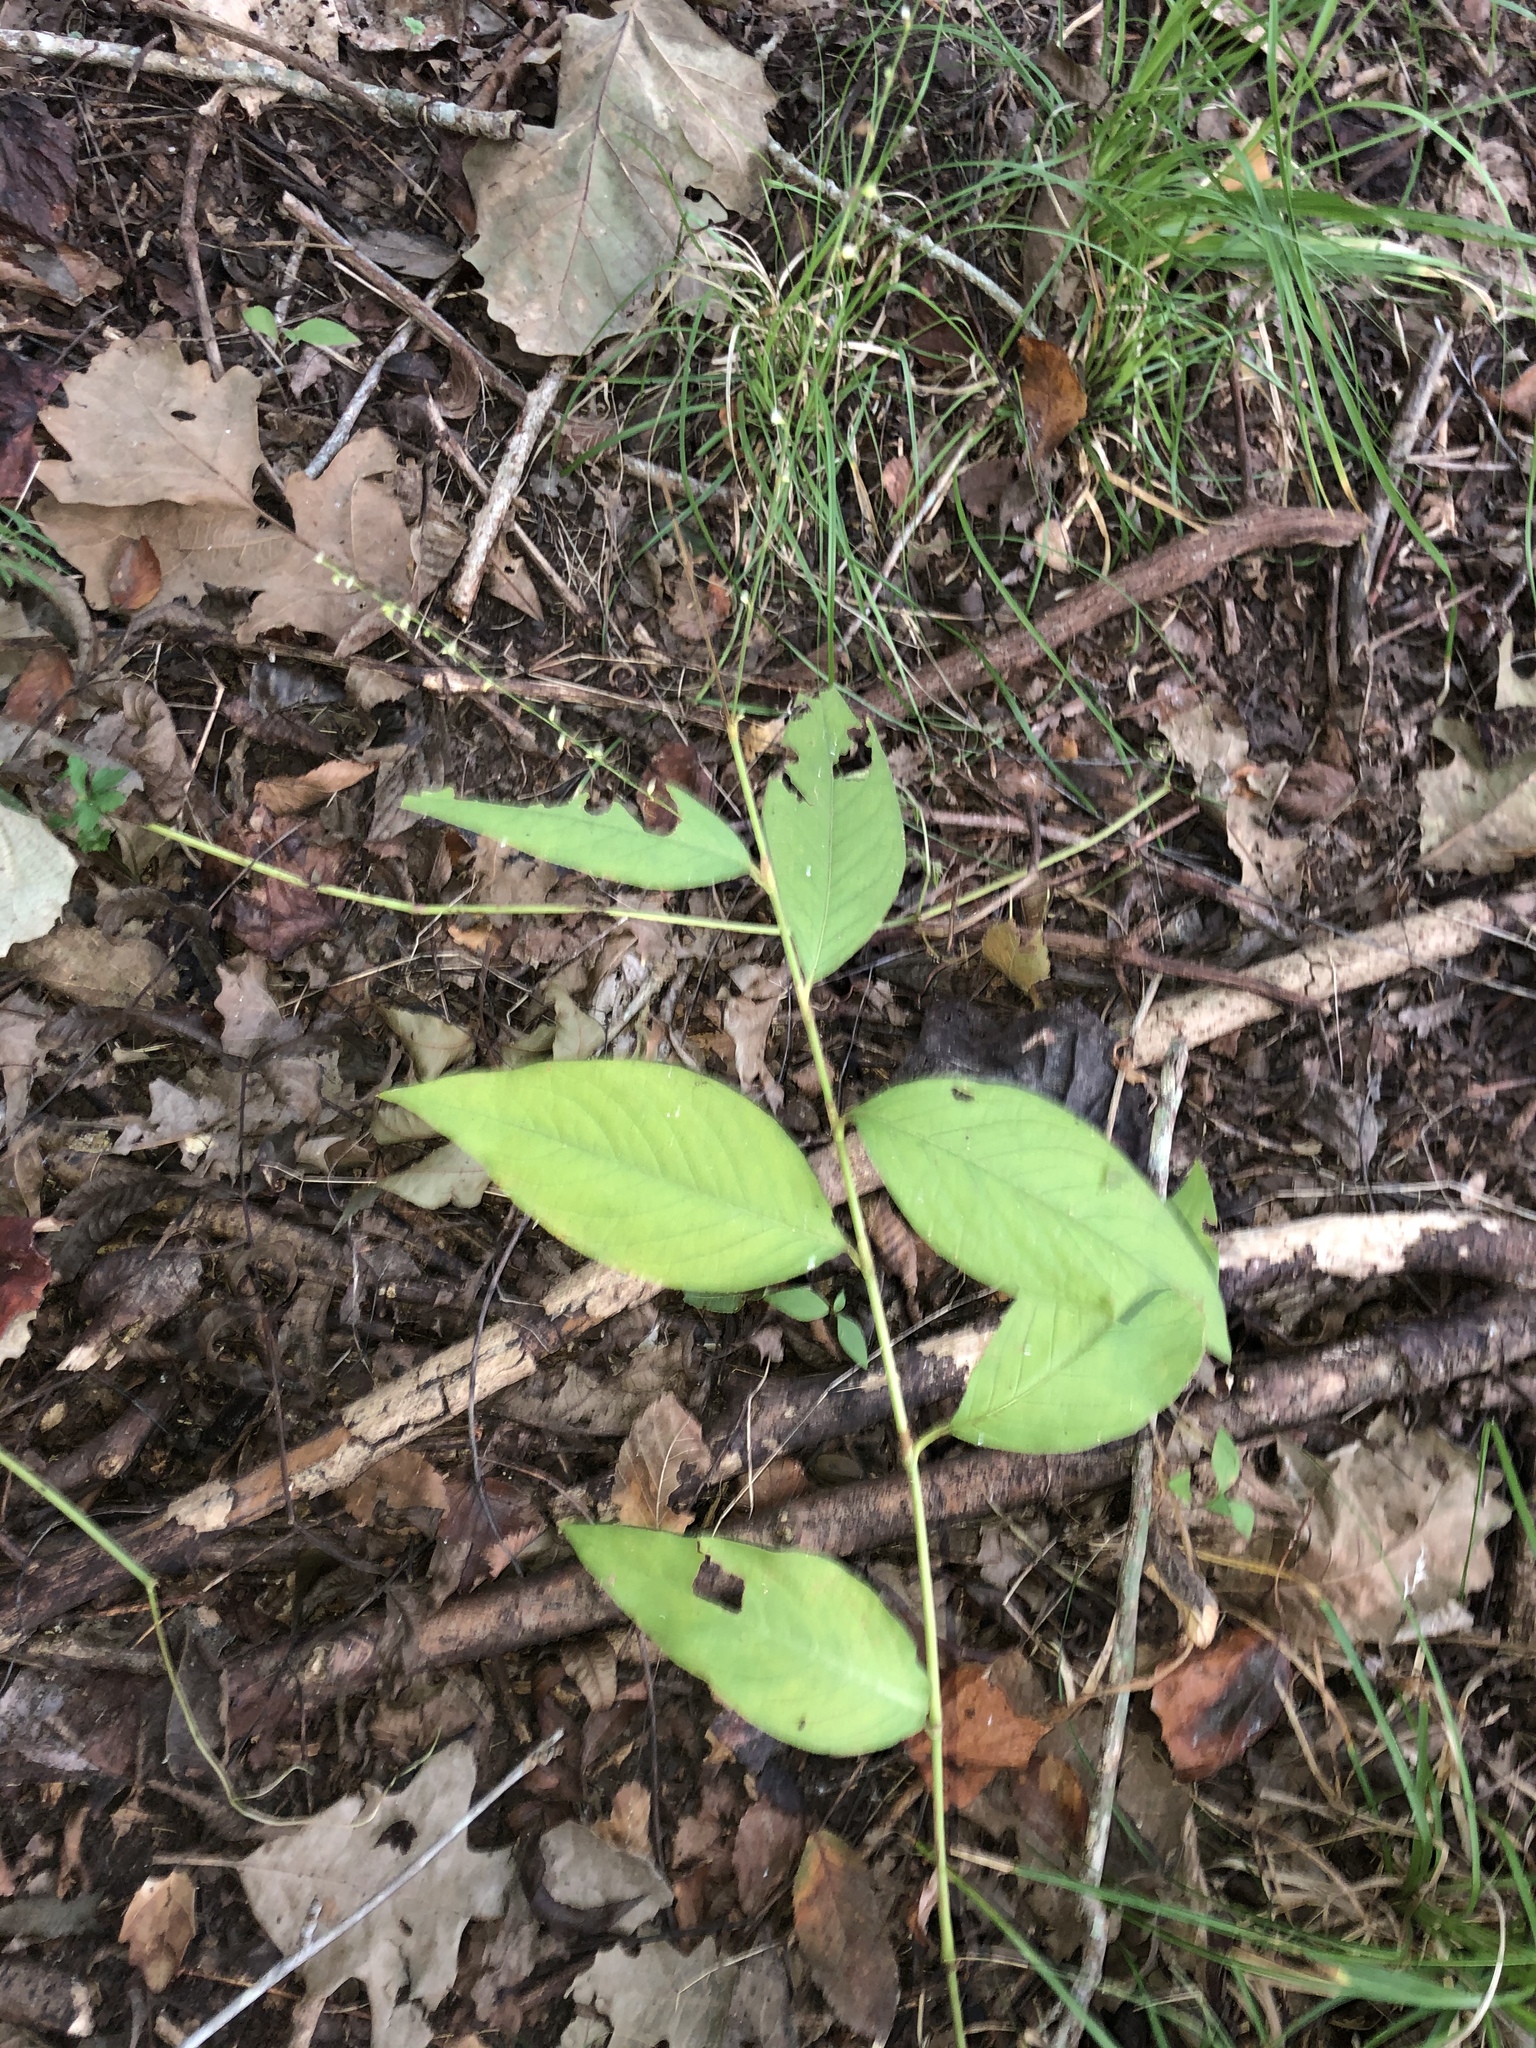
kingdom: Plantae
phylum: Tracheophyta
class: Magnoliopsida
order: Caryophyllales
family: Polygonaceae
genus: Persicaria
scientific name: Persicaria virginiana
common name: Jumpseed
